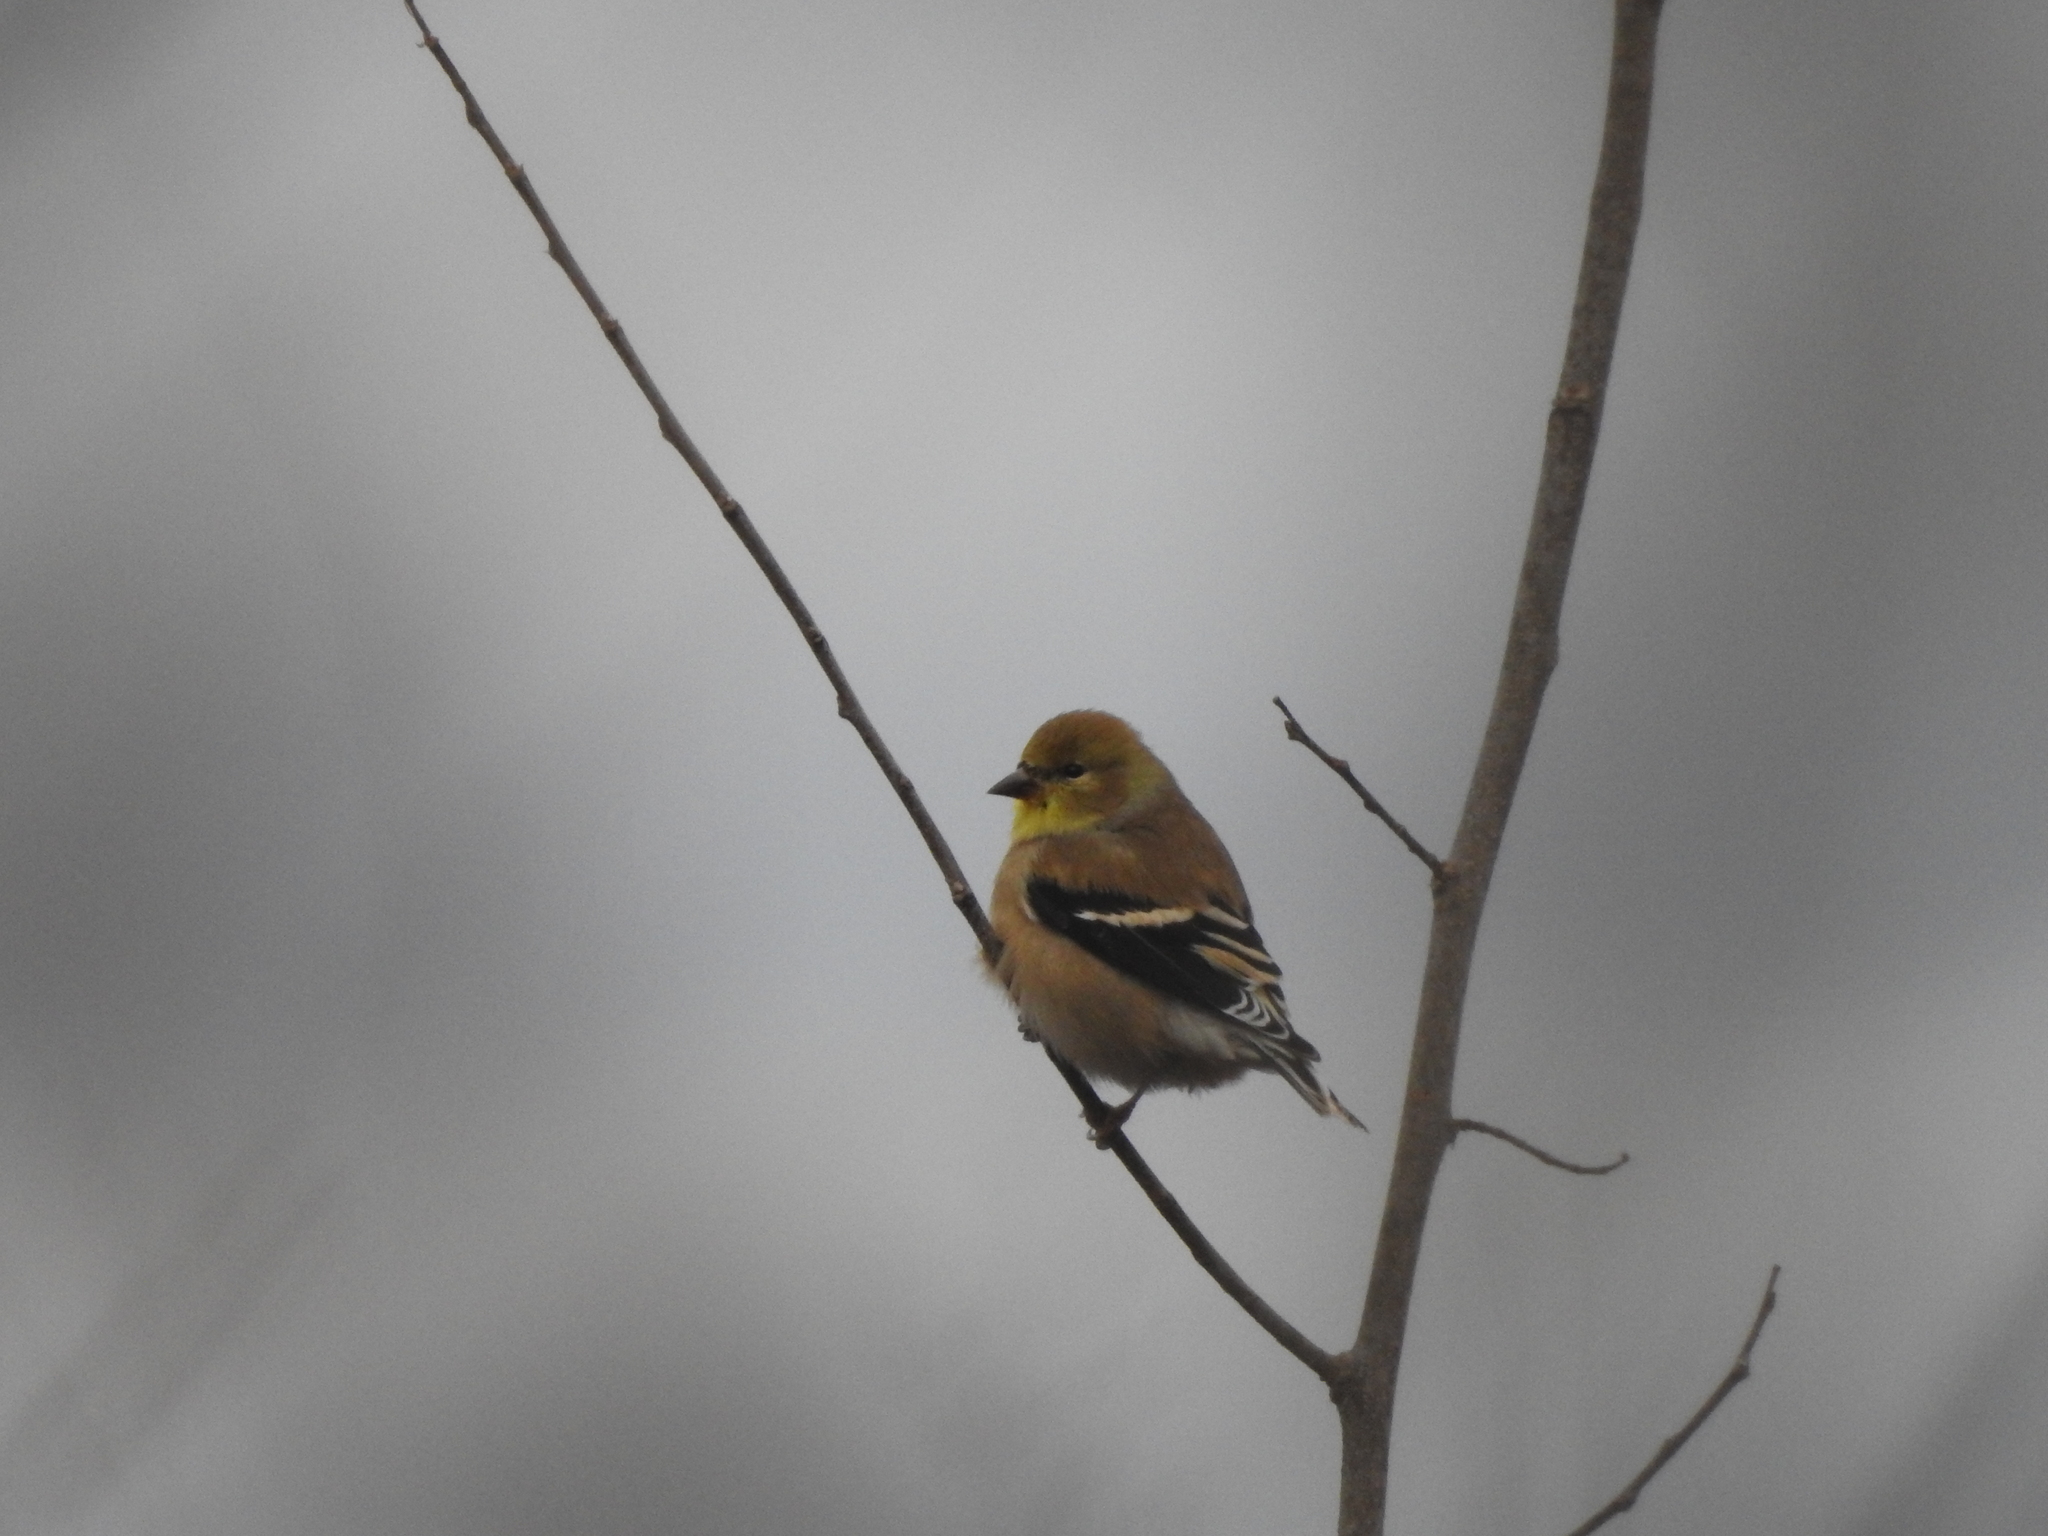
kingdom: Animalia
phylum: Chordata
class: Aves
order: Passeriformes
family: Fringillidae
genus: Spinus
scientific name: Spinus tristis
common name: American goldfinch
